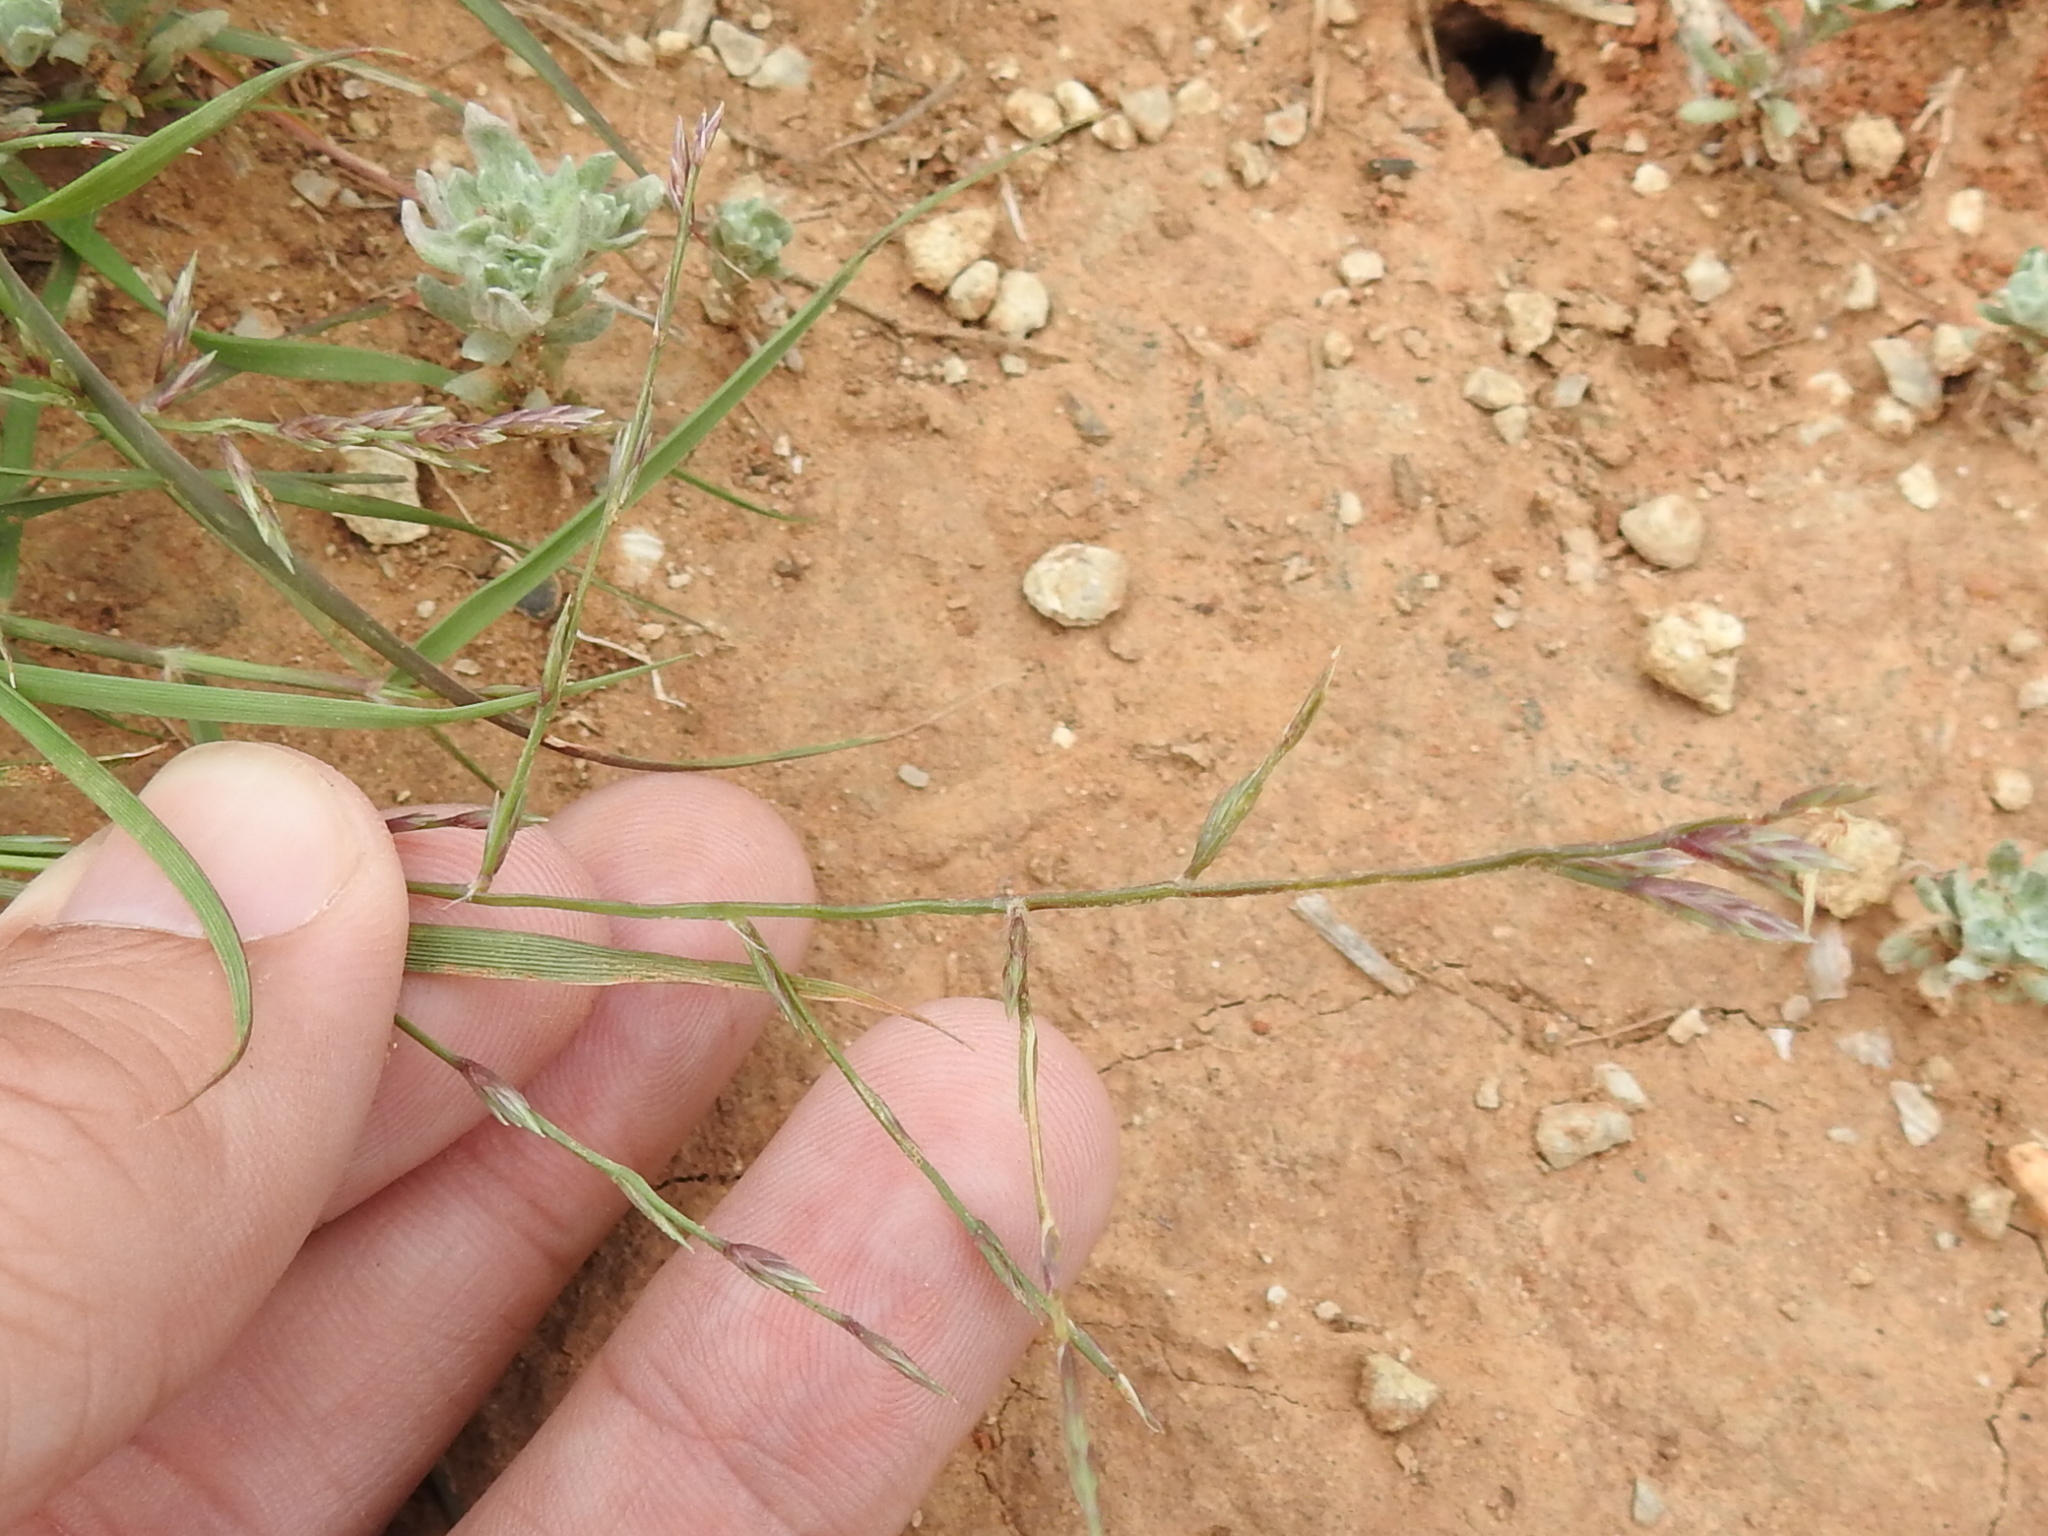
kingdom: Plantae
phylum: Tracheophyta
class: Liliopsida
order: Poales
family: Poaceae
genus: Eragrostis
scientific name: Eragrostis sessilispica
